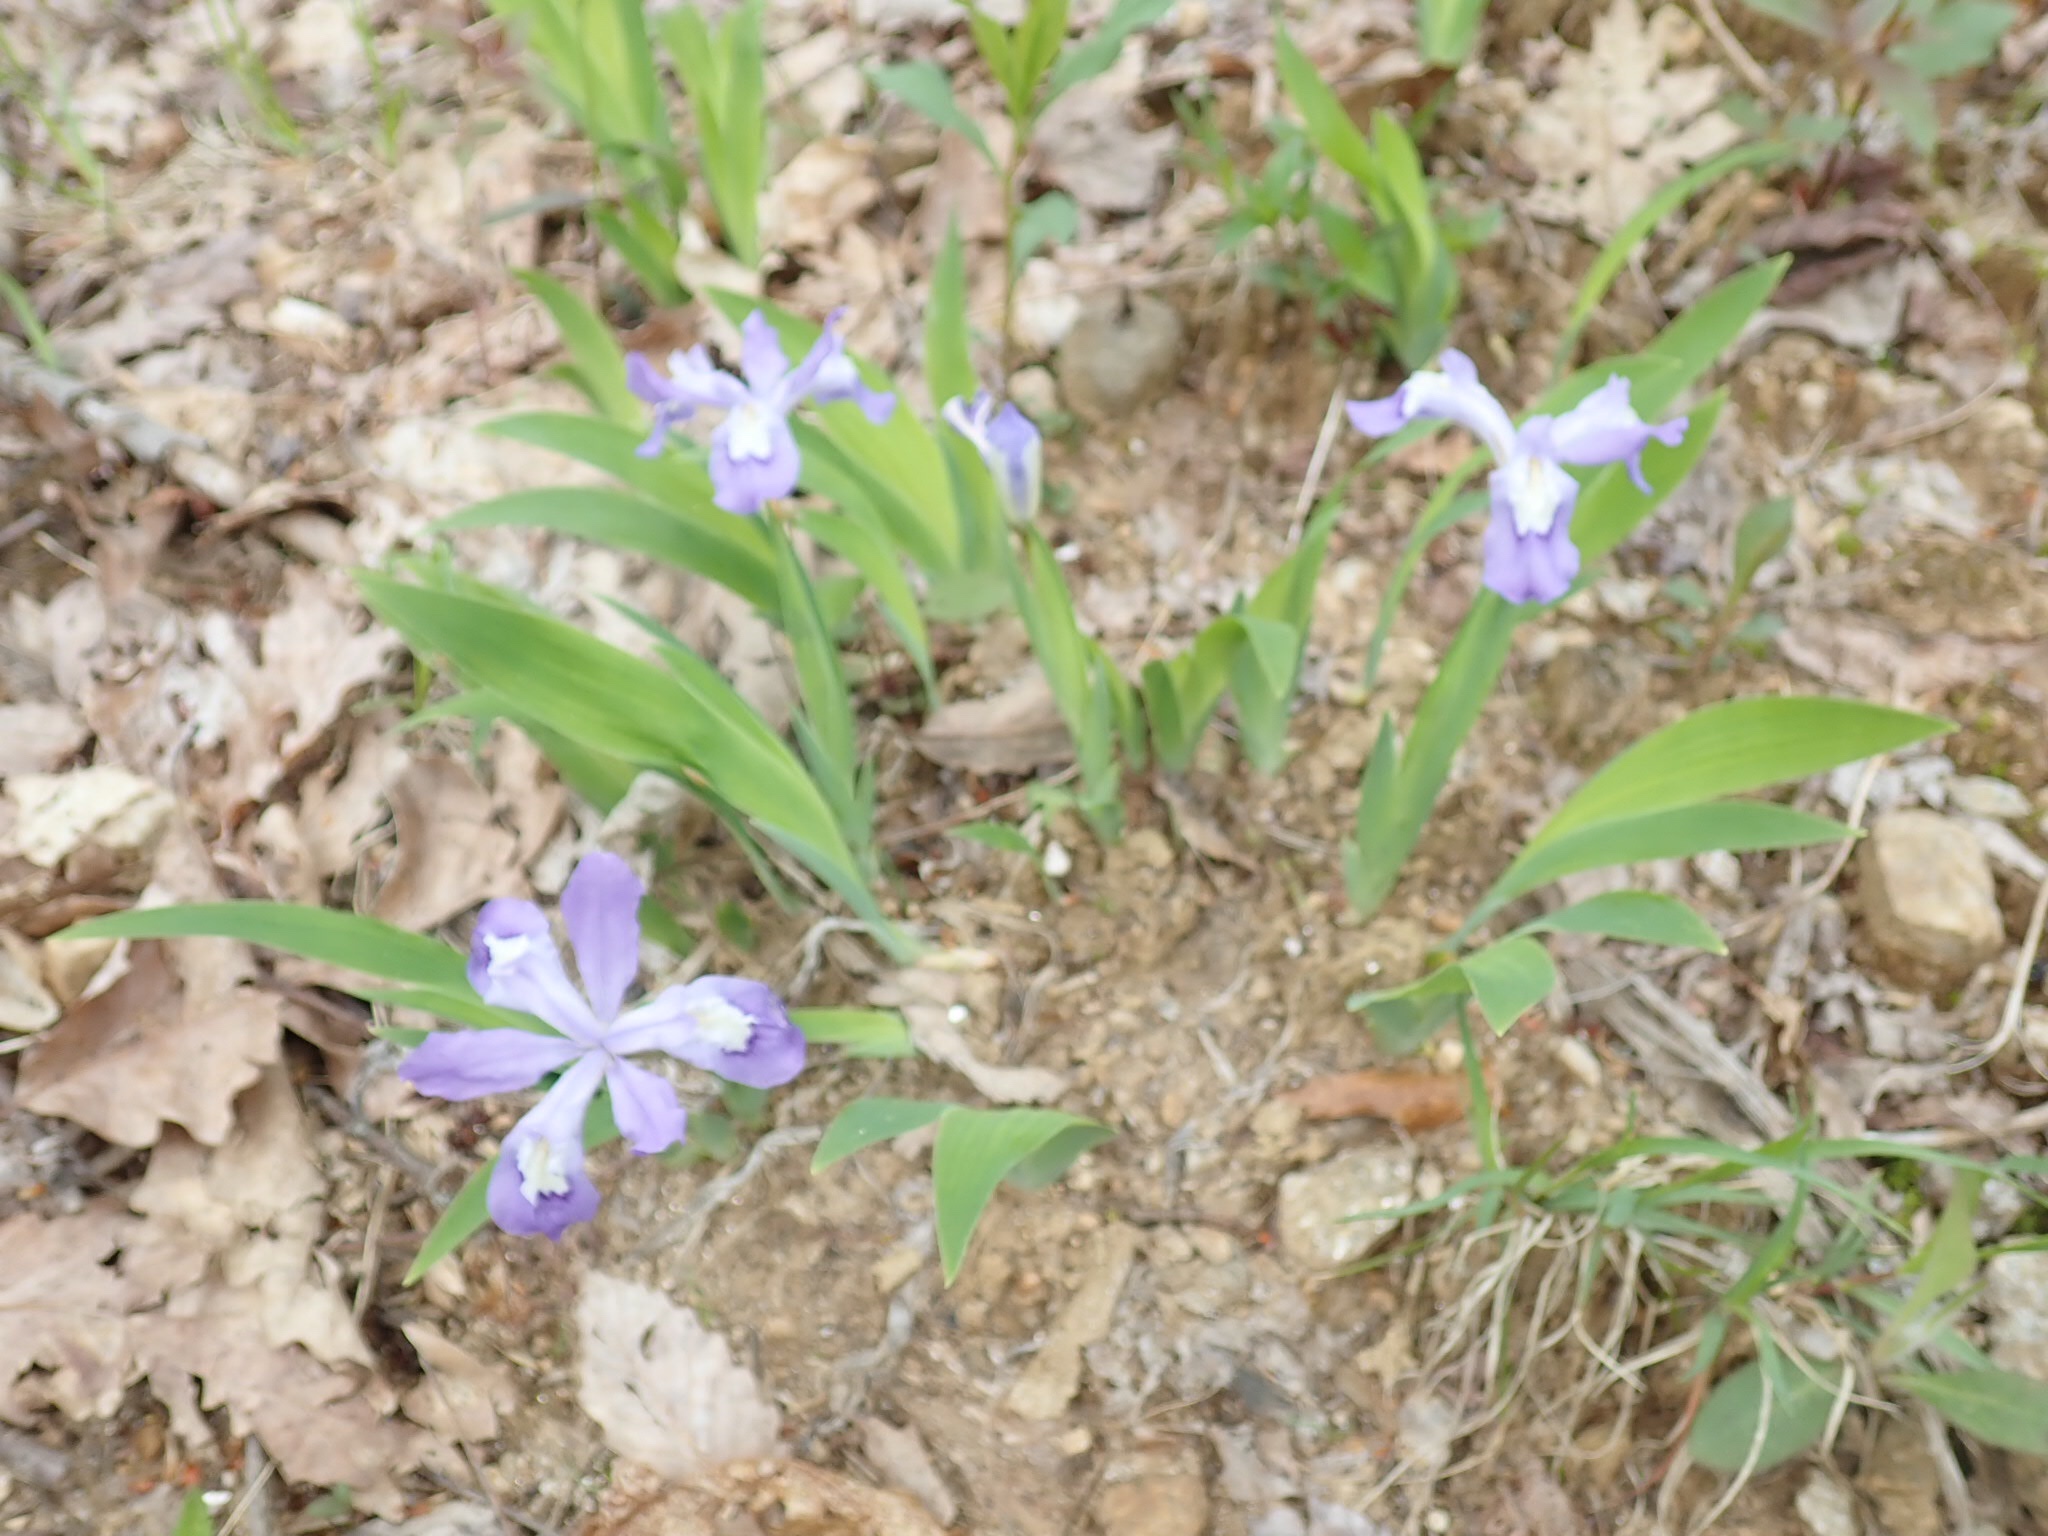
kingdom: Plantae
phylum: Tracheophyta
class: Liliopsida
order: Asparagales
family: Iridaceae
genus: Iris
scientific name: Iris cristata
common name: Crested iris
